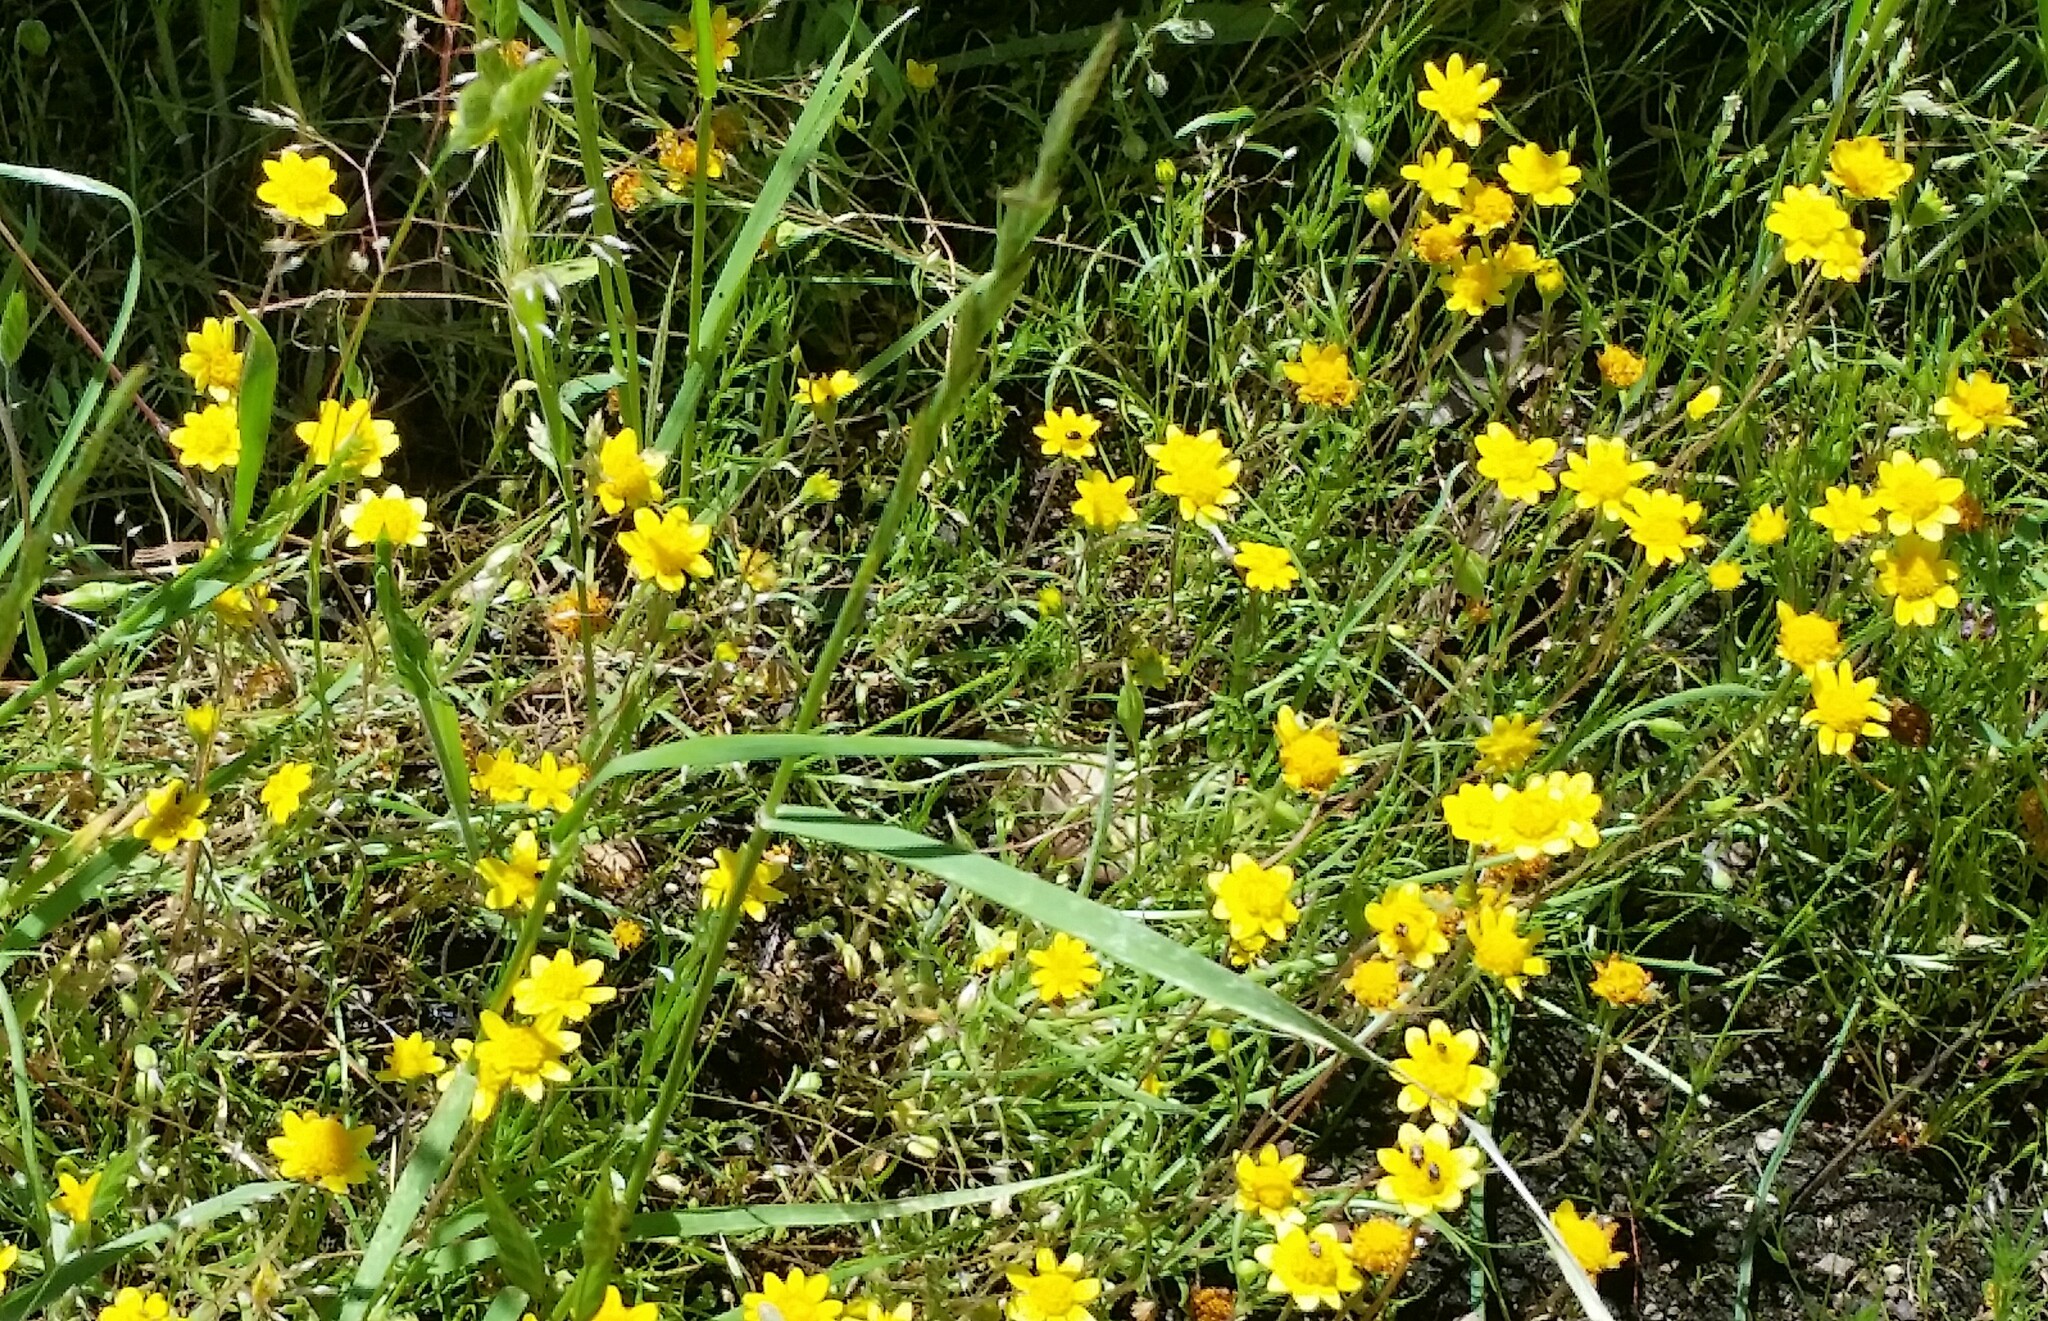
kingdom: Plantae
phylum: Tracheophyta
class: Magnoliopsida
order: Asterales
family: Asteraceae
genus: Lasthenia
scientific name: Lasthenia californica
